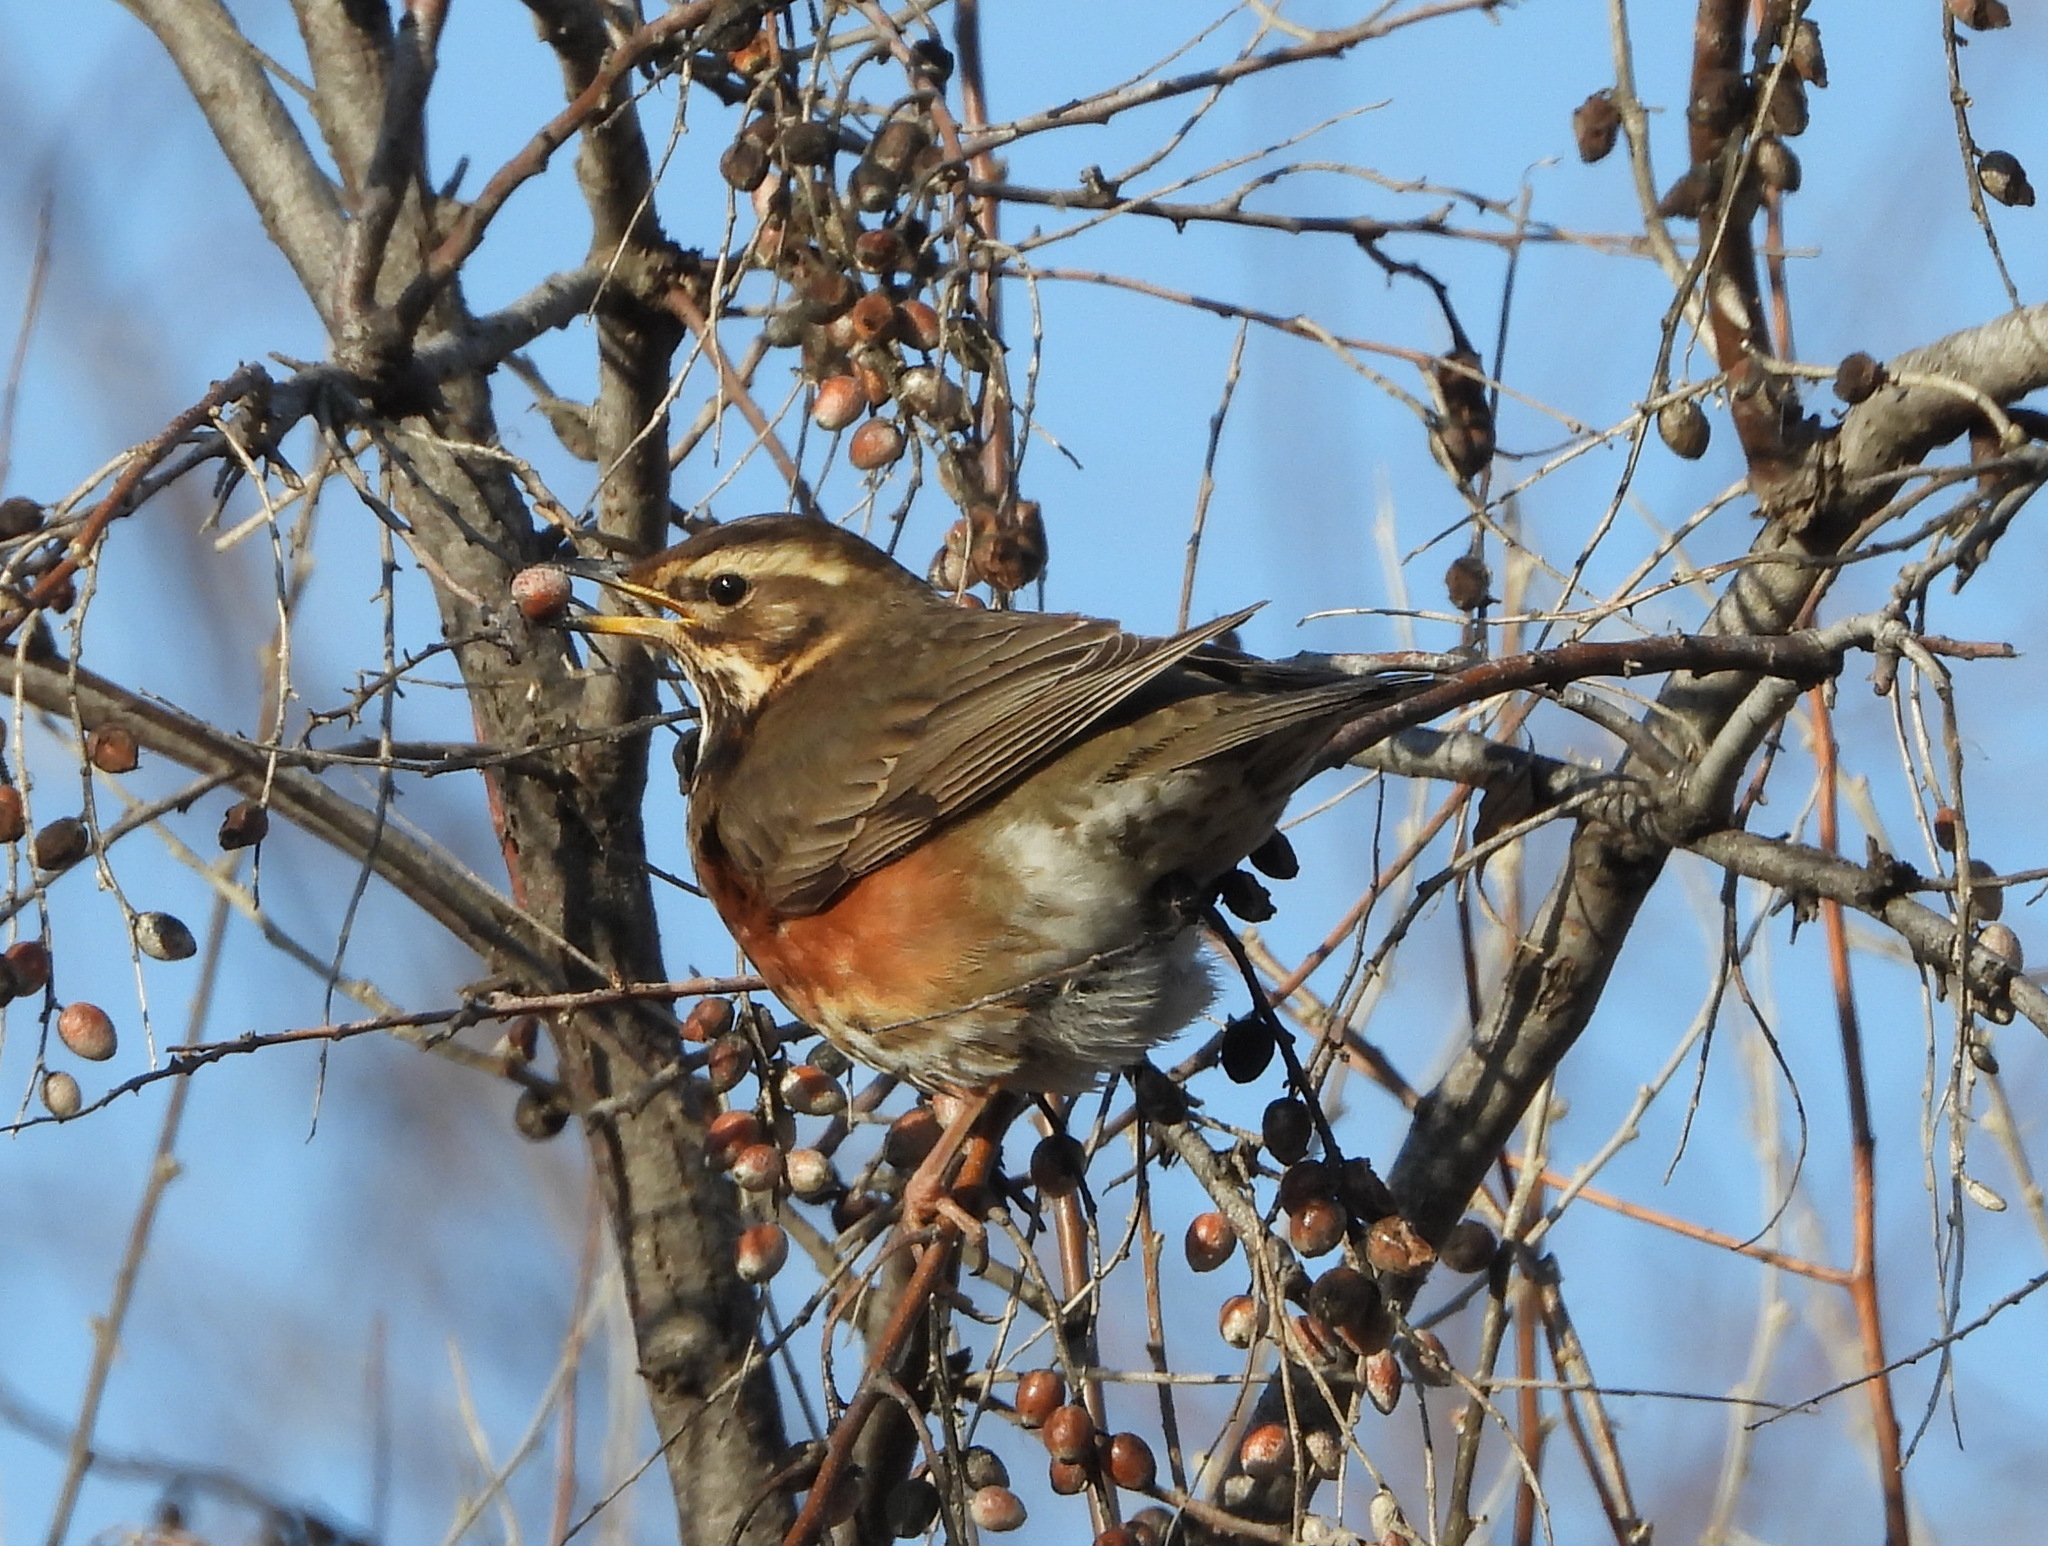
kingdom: Animalia
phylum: Chordata
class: Aves
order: Passeriformes
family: Turdidae
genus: Turdus
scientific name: Turdus iliacus
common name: Redwing
